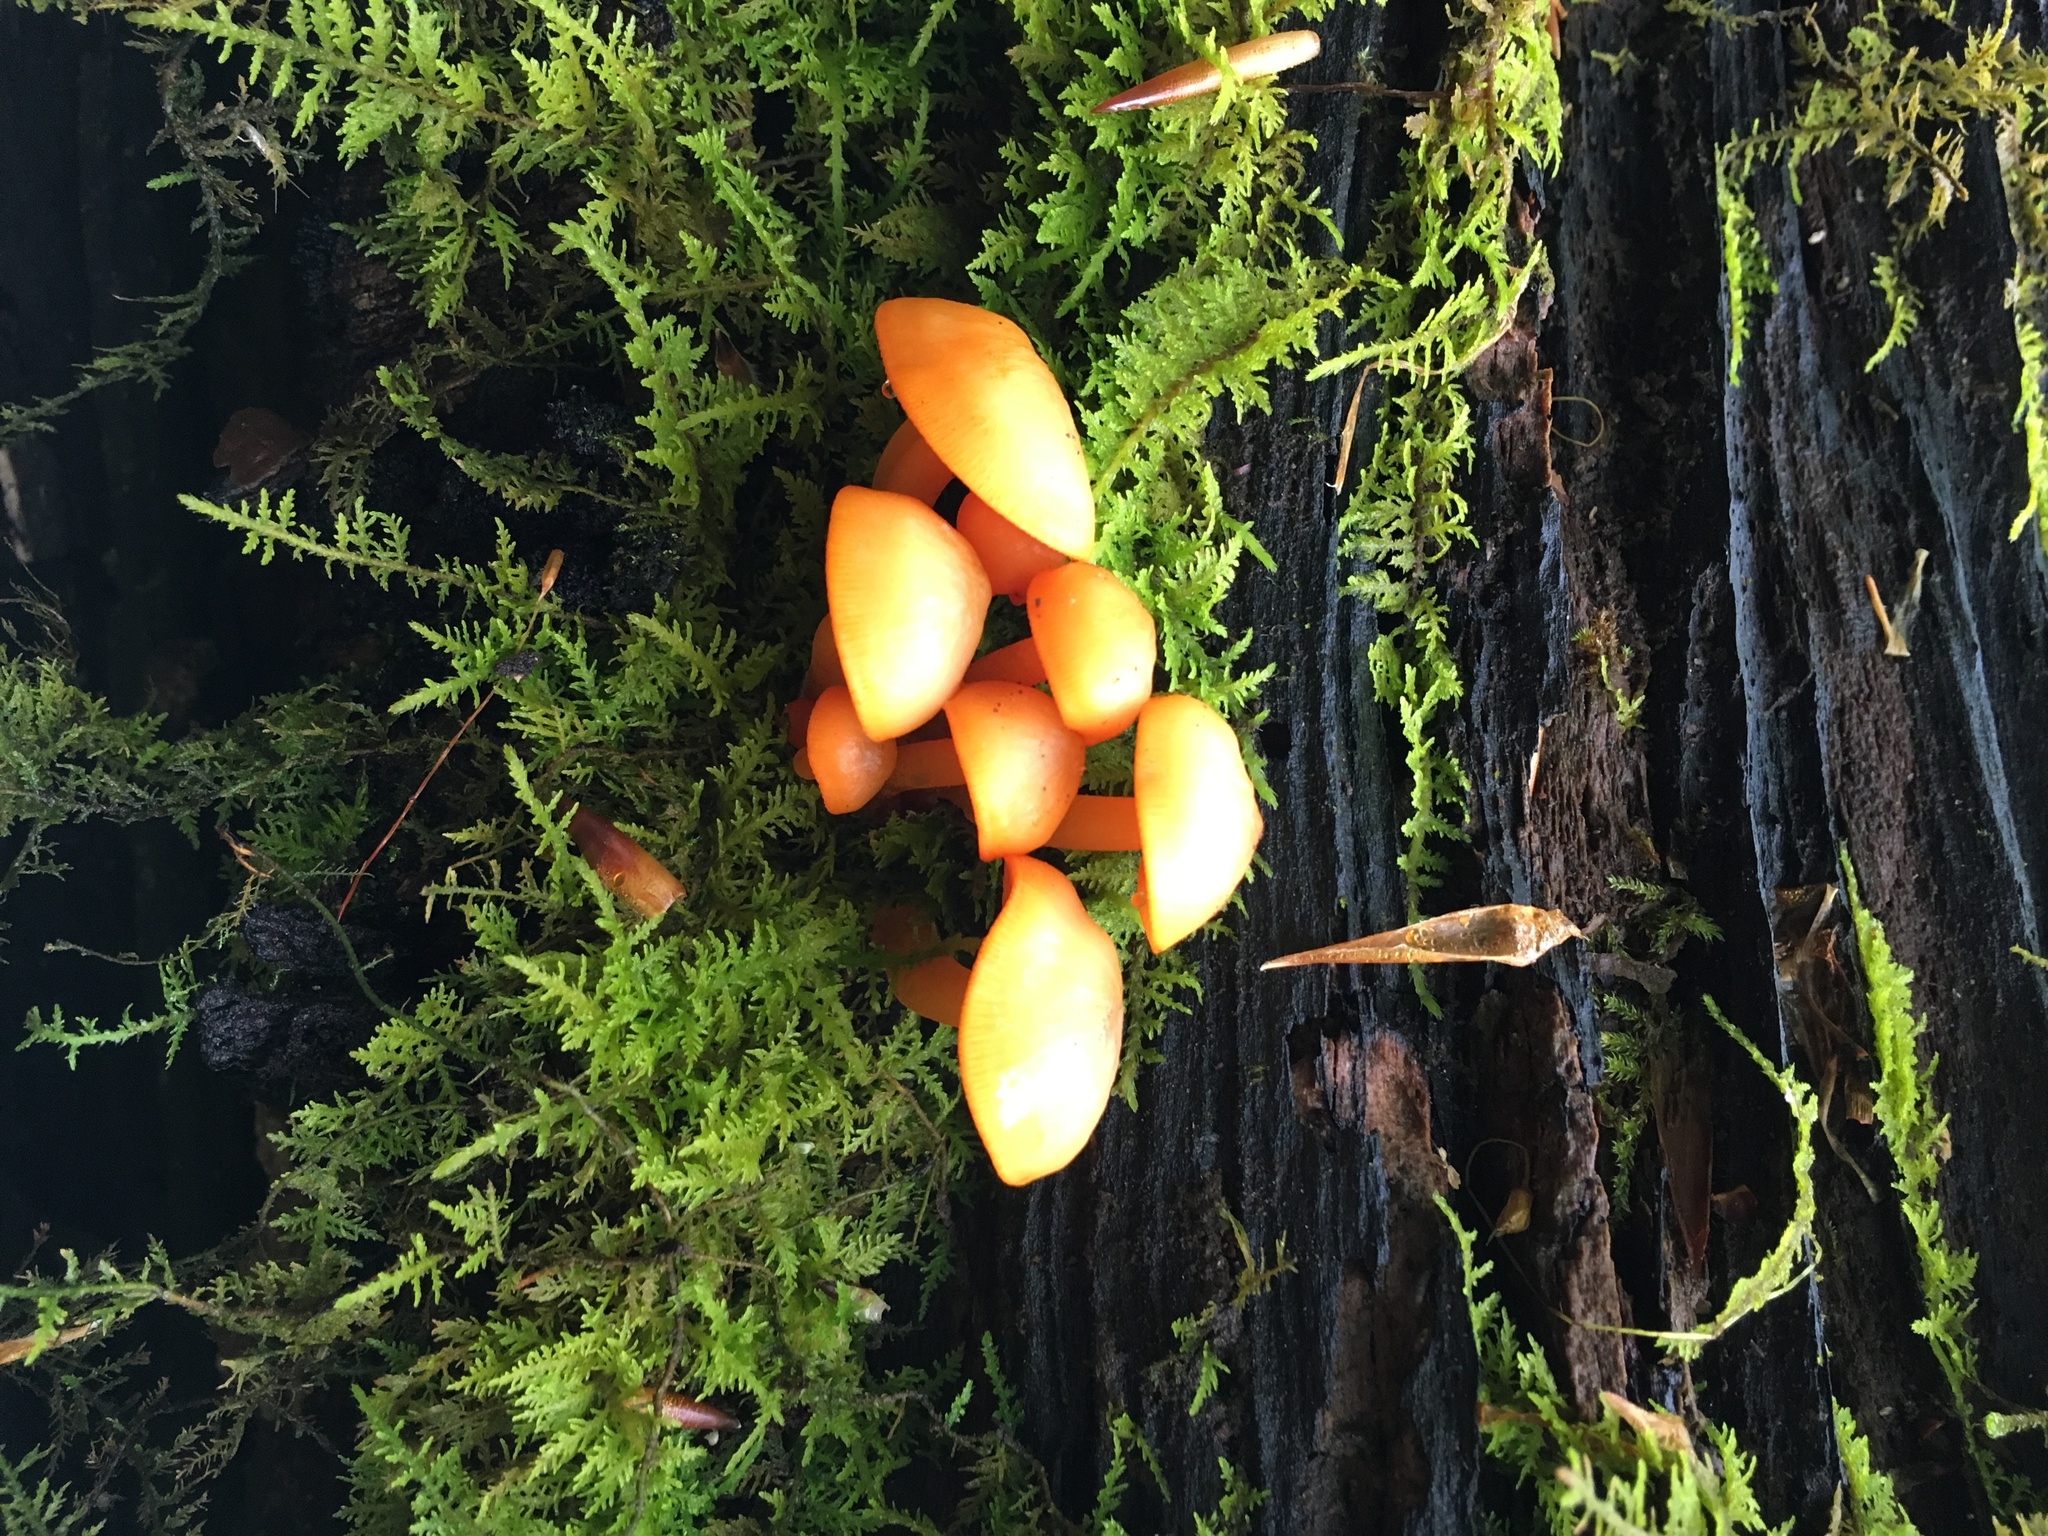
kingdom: Fungi
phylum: Basidiomycota
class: Agaricomycetes
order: Agaricales
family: Mycenaceae
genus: Mycena
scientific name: Mycena leaiana
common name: Orange mycena
